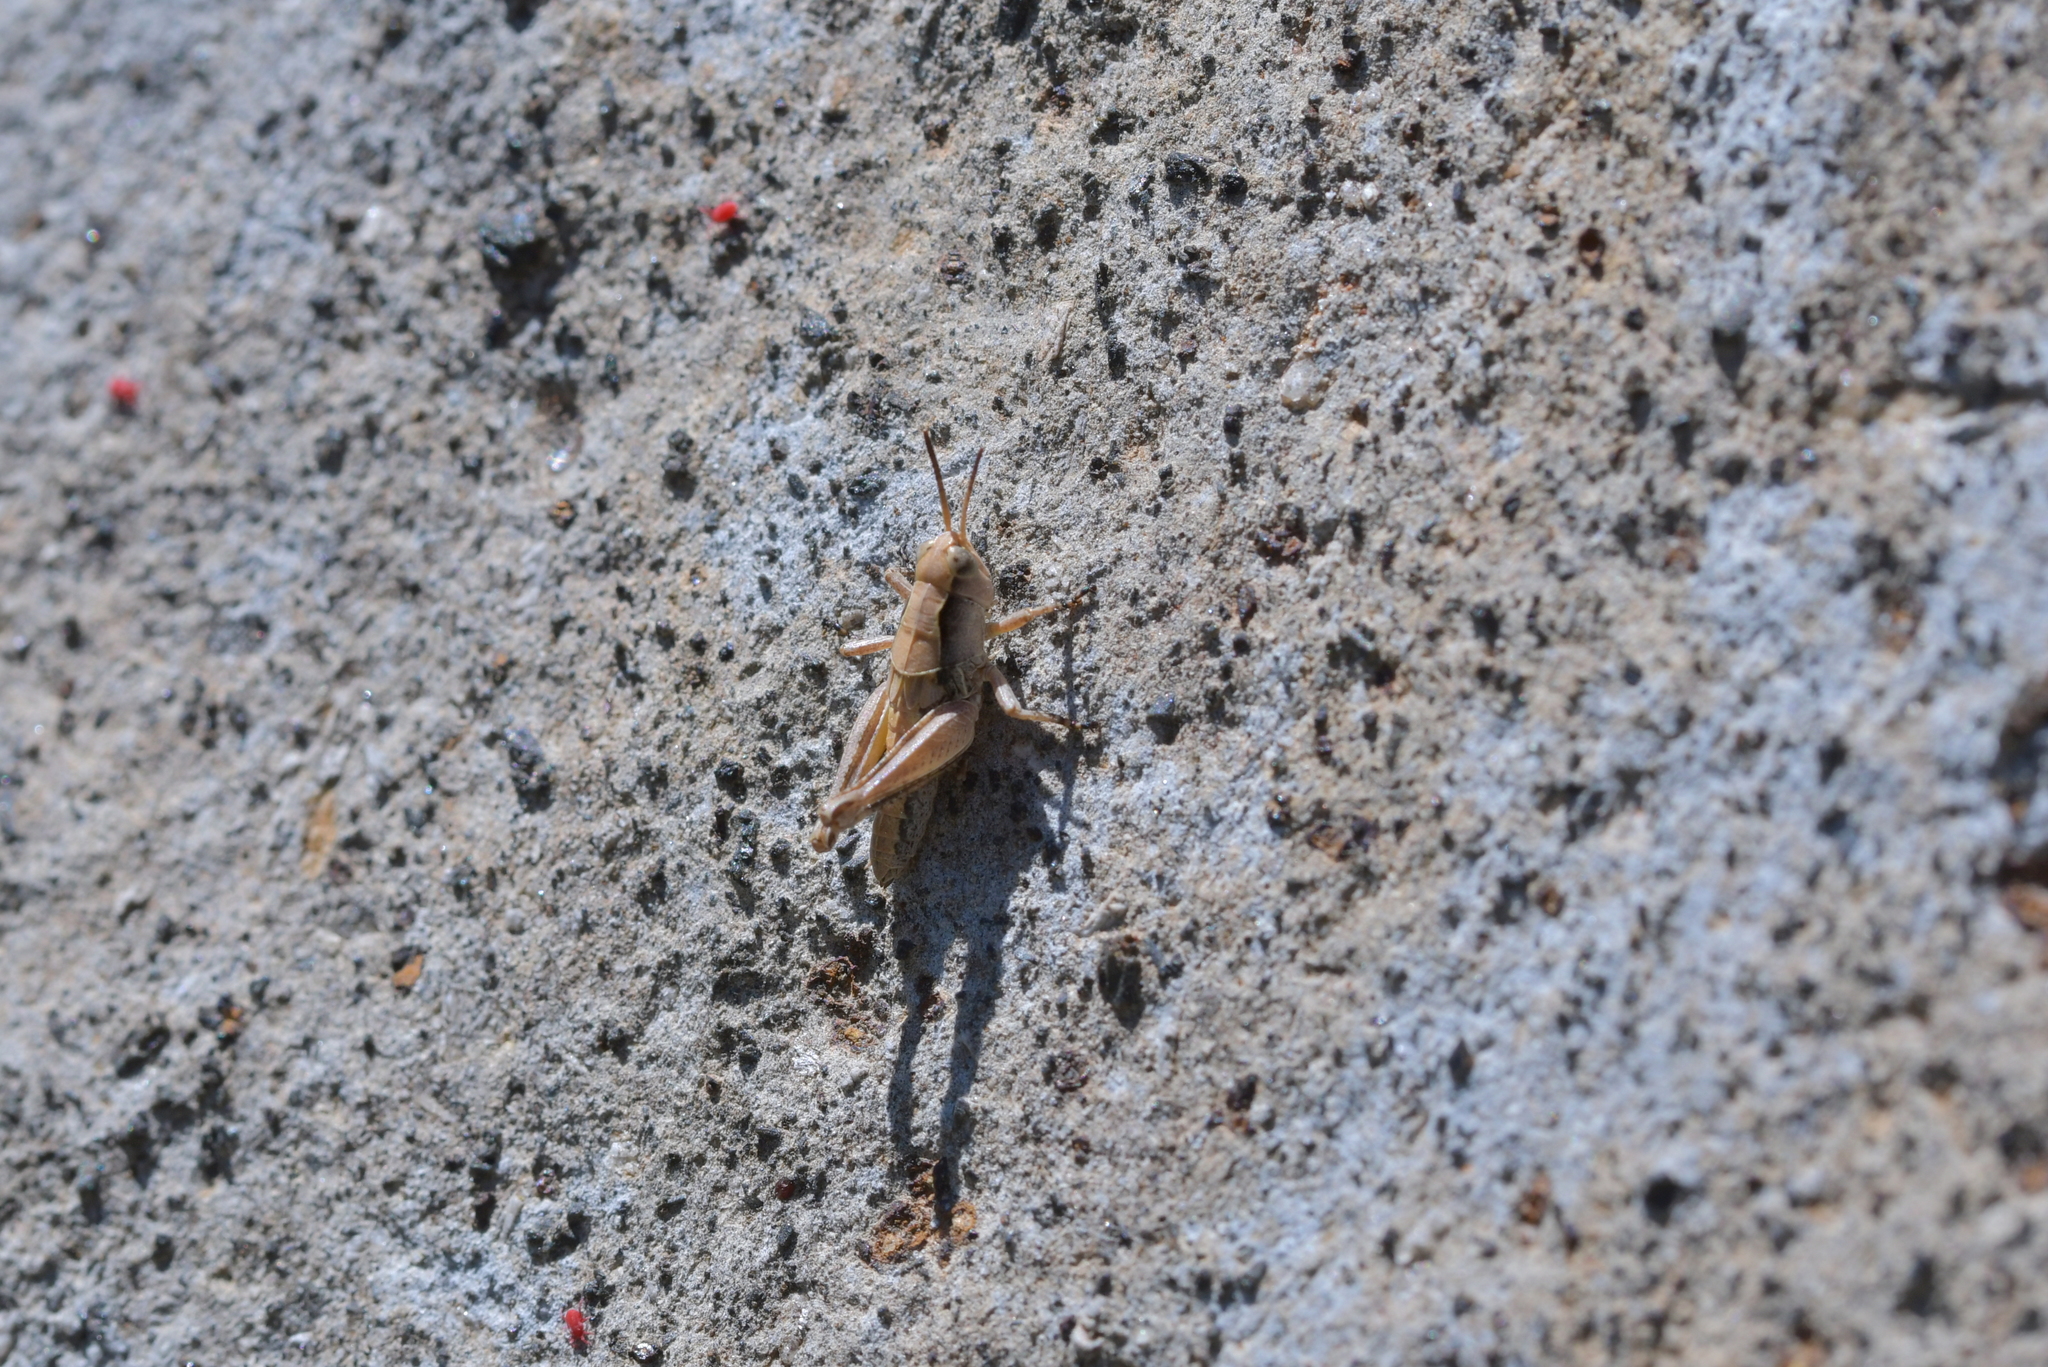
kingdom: Animalia
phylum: Arthropoda
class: Insecta
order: Orthoptera
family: Acrididae
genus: Phaulacridium
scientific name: Phaulacridium marginale
